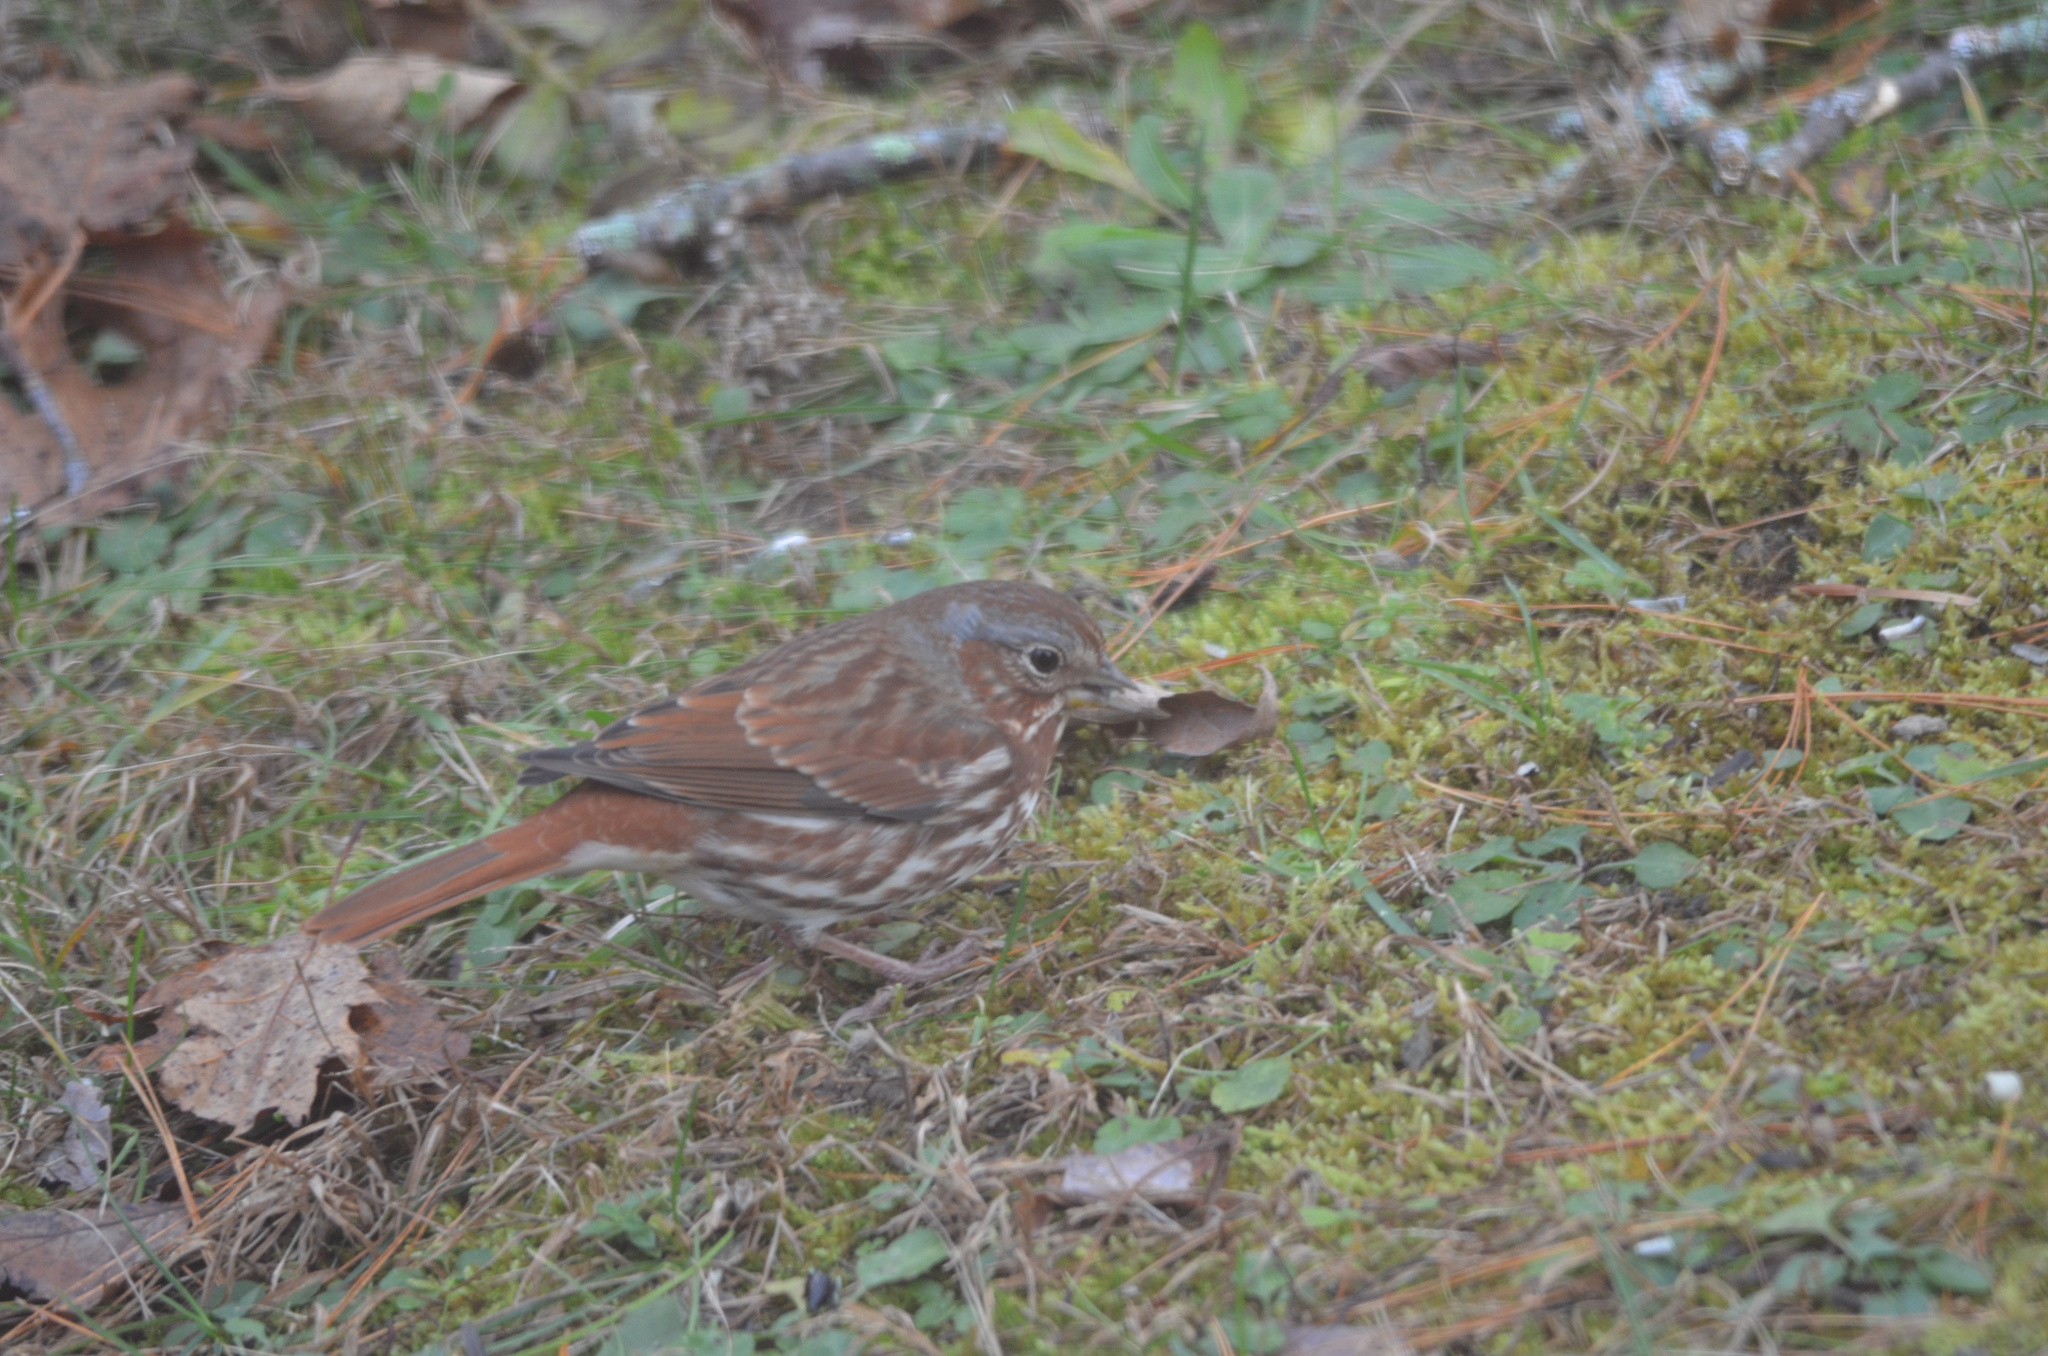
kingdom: Animalia
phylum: Chordata
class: Aves
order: Passeriformes
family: Passerellidae
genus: Passerella
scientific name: Passerella iliaca
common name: Fox sparrow
